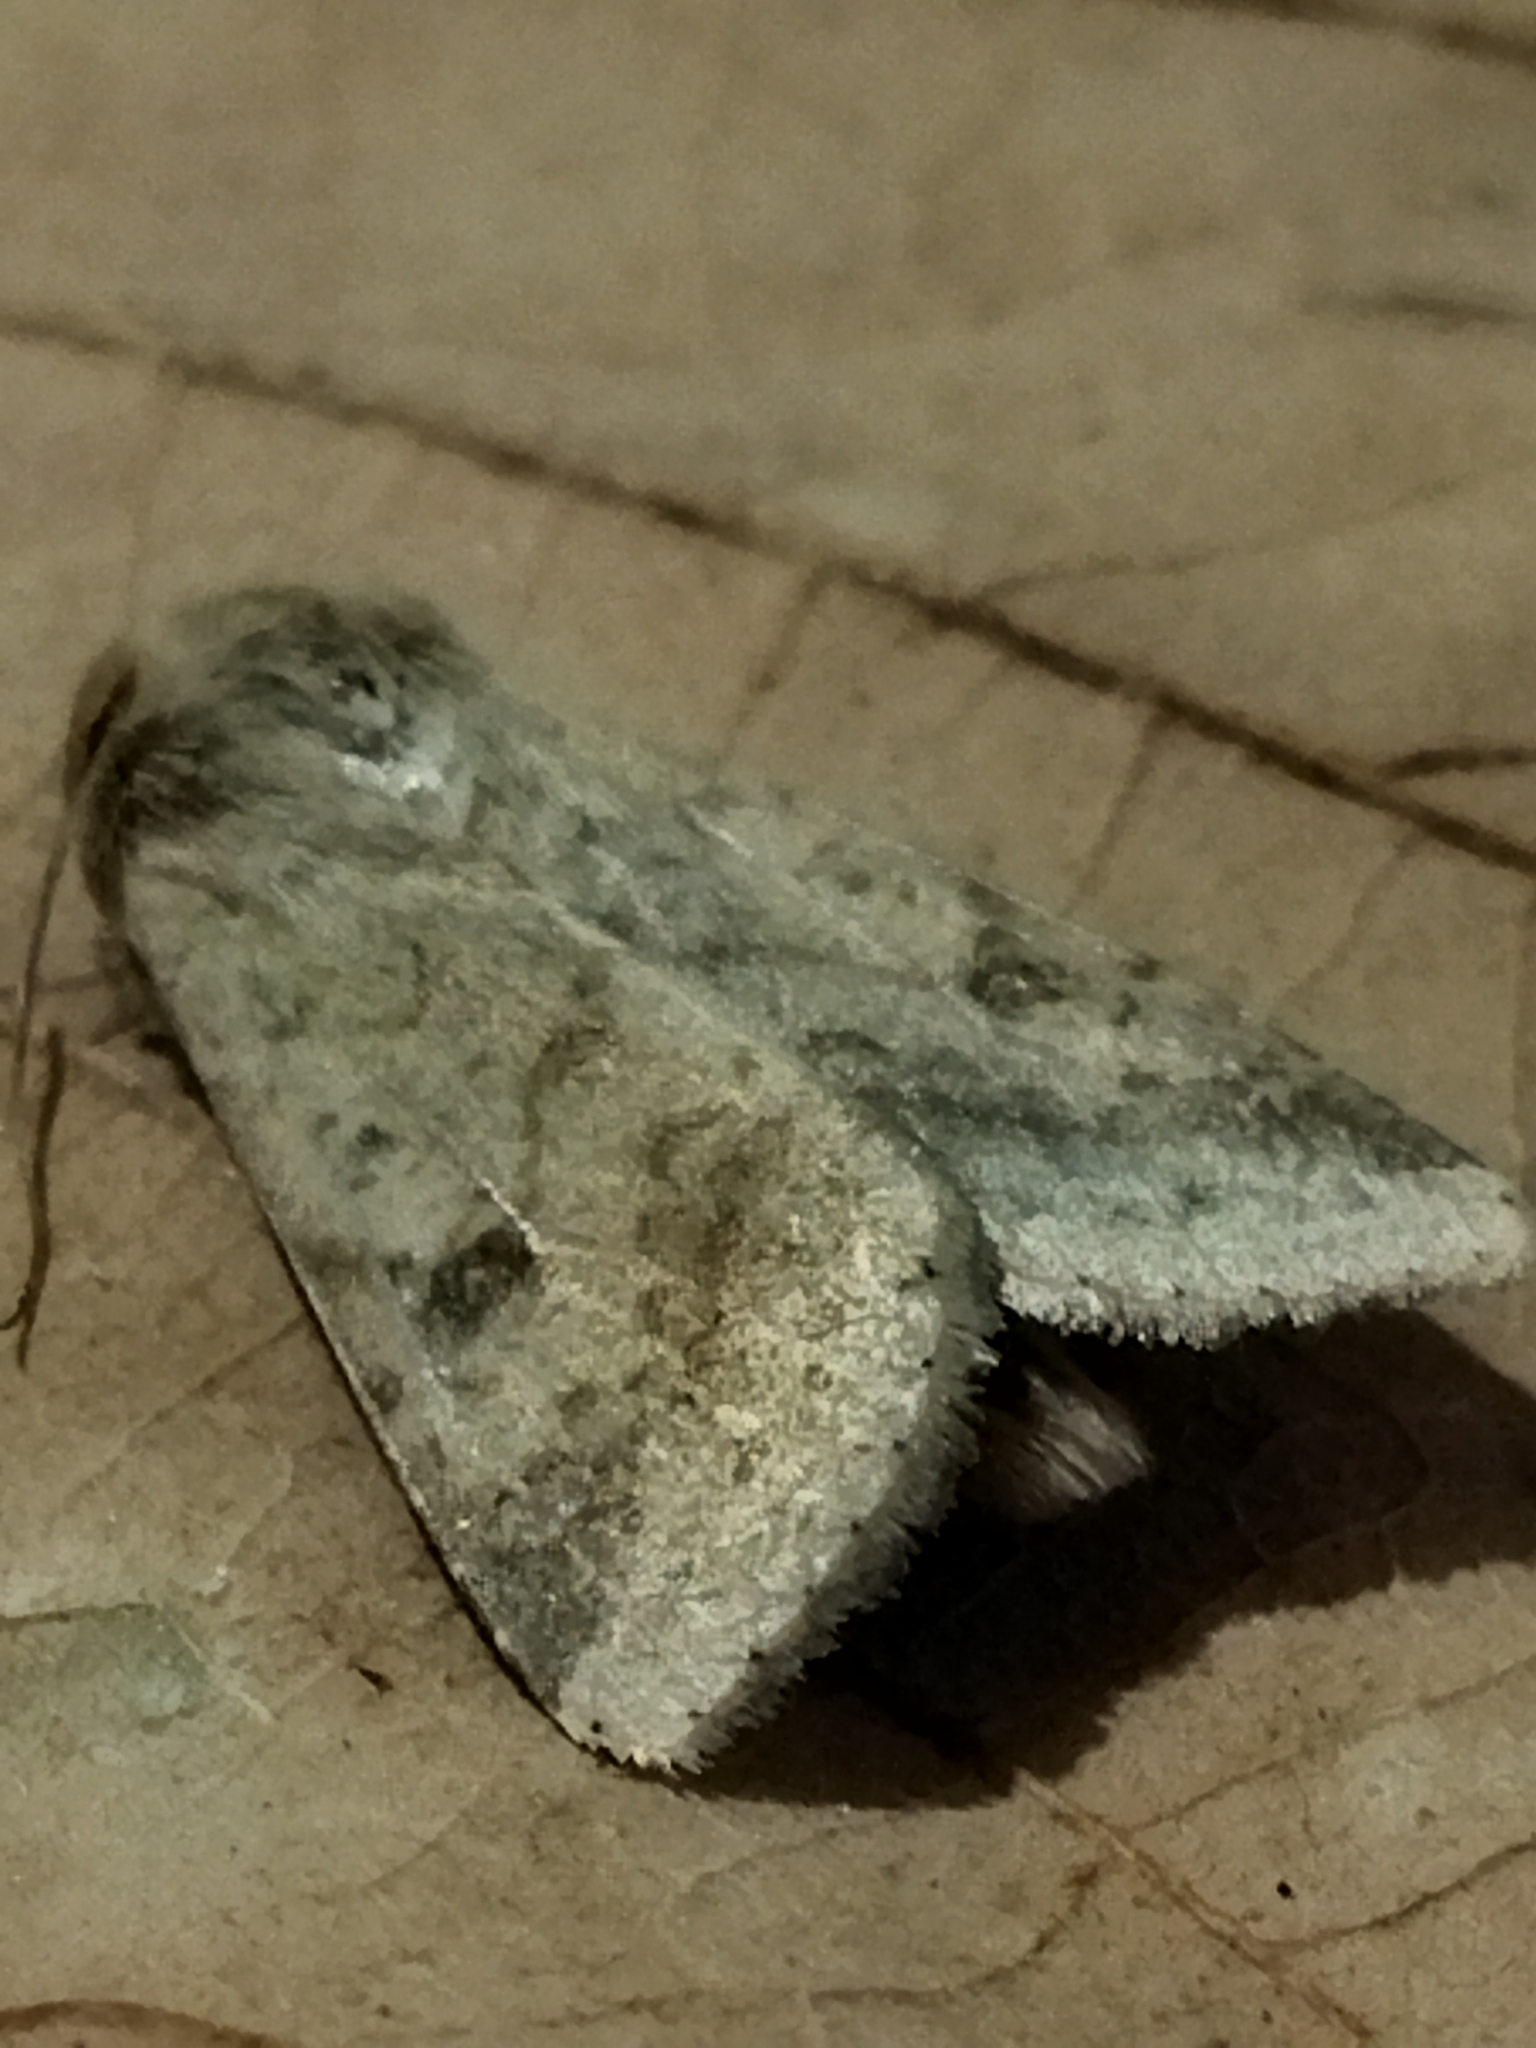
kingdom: Animalia
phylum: Arthropoda
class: Insecta
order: Lepidoptera
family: Noctuidae
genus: Helicoverpa
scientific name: Helicoverpa armigera
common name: Cotton bollworm
